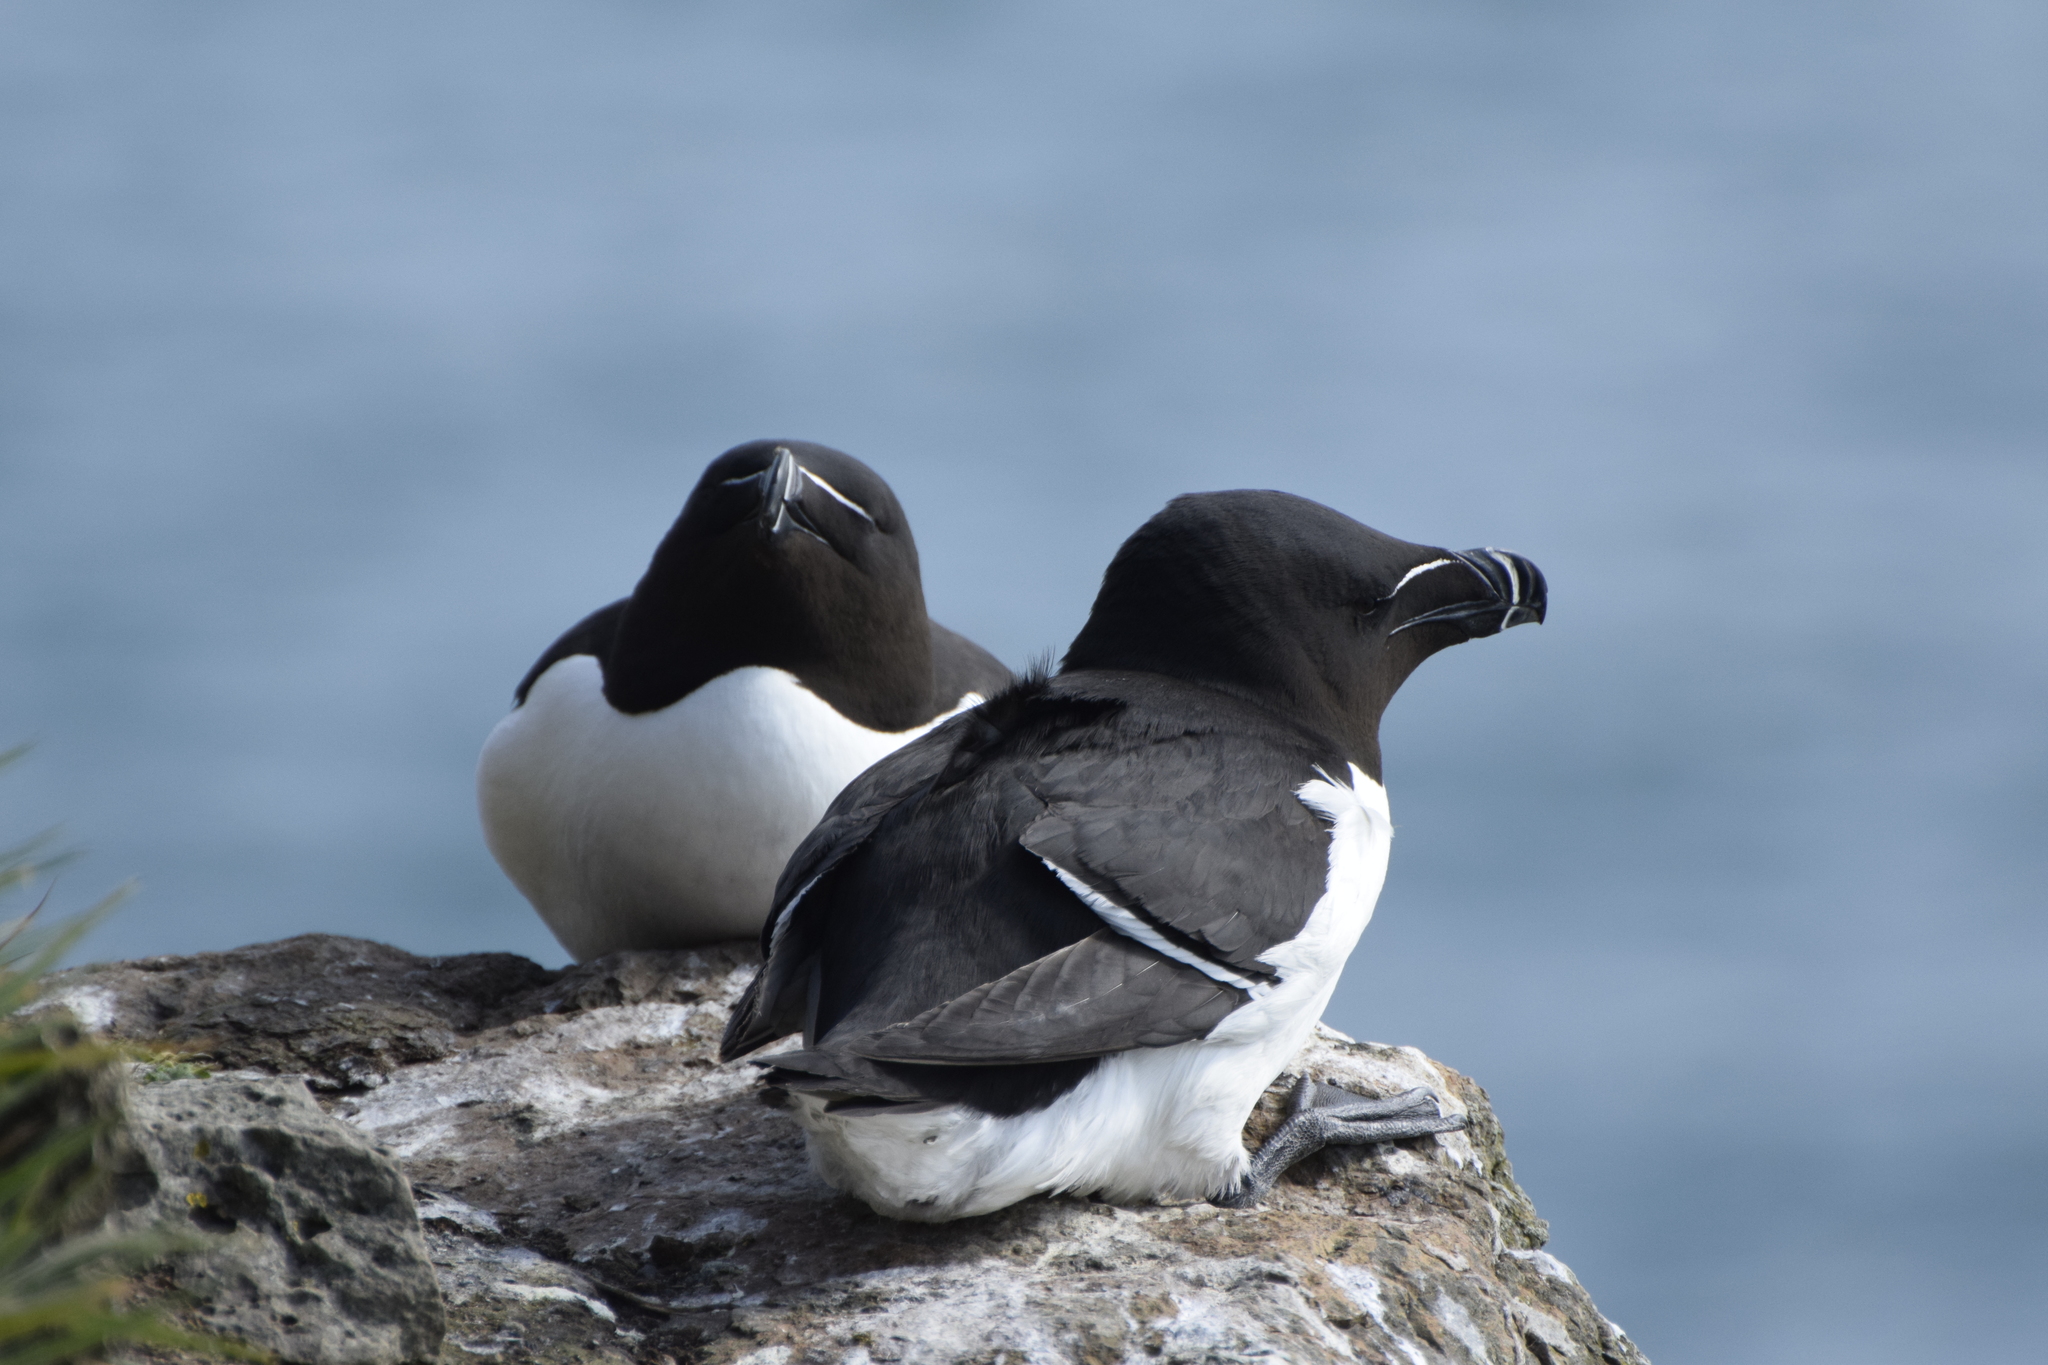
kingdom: Animalia
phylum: Chordata
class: Aves
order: Charadriiformes
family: Alcidae
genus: Alca
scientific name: Alca torda
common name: Razorbill
